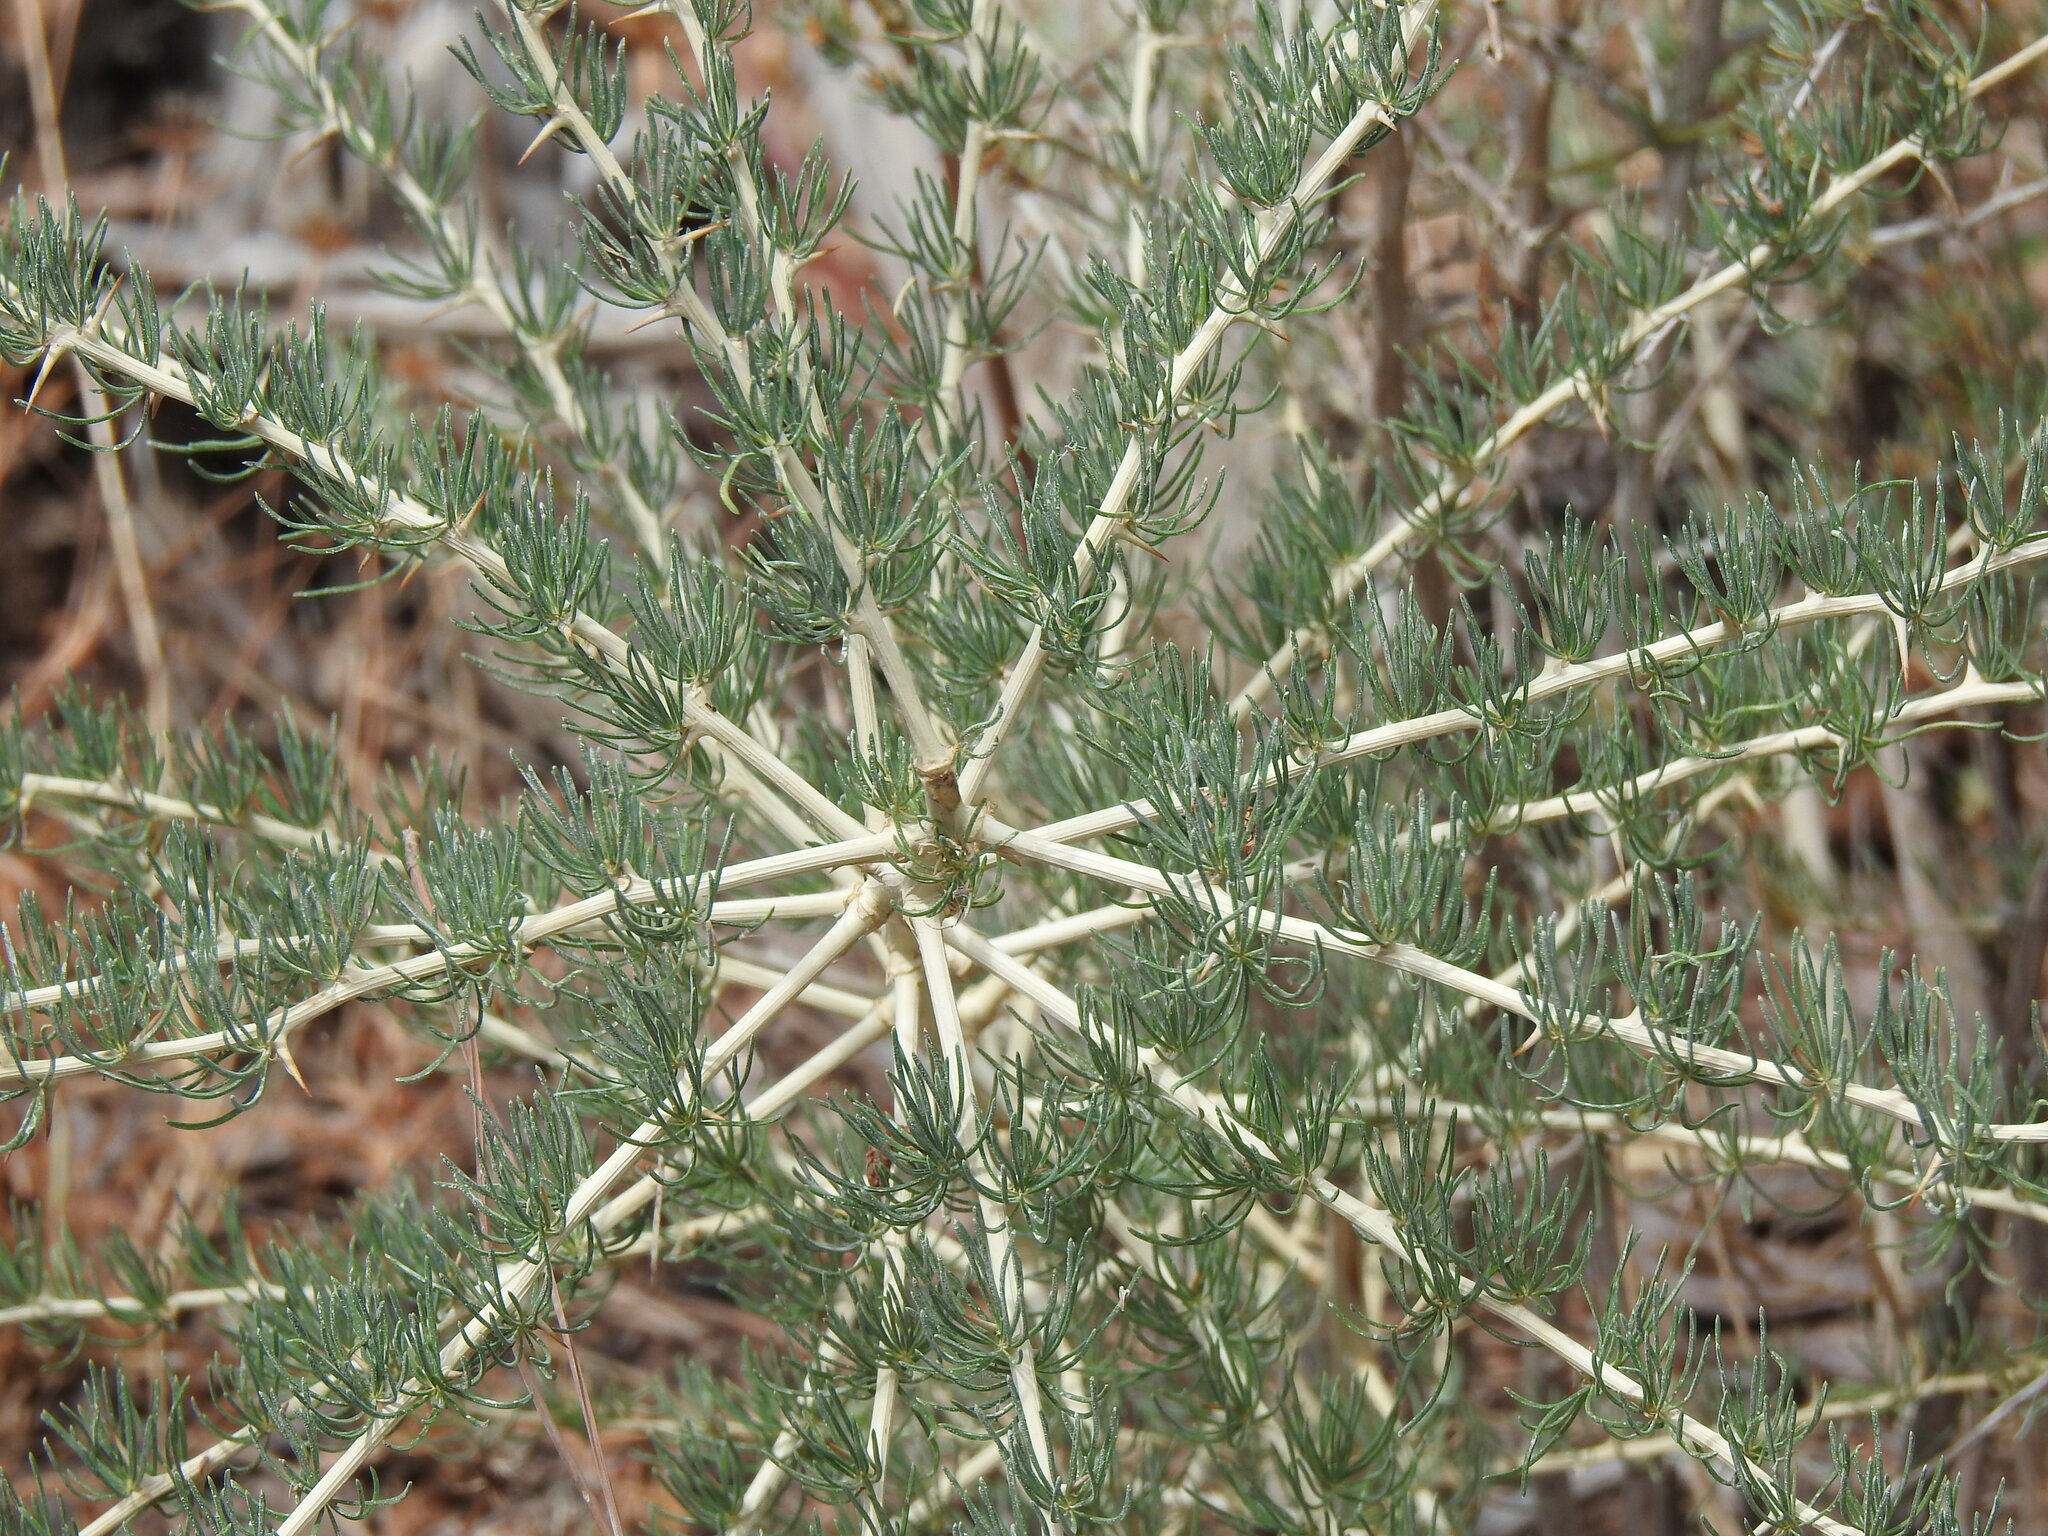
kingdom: Plantae
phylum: Tracheophyta
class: Liliopsida
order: Asparagales
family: Asparagaceae
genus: Asparagus
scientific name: Asparagus albus
